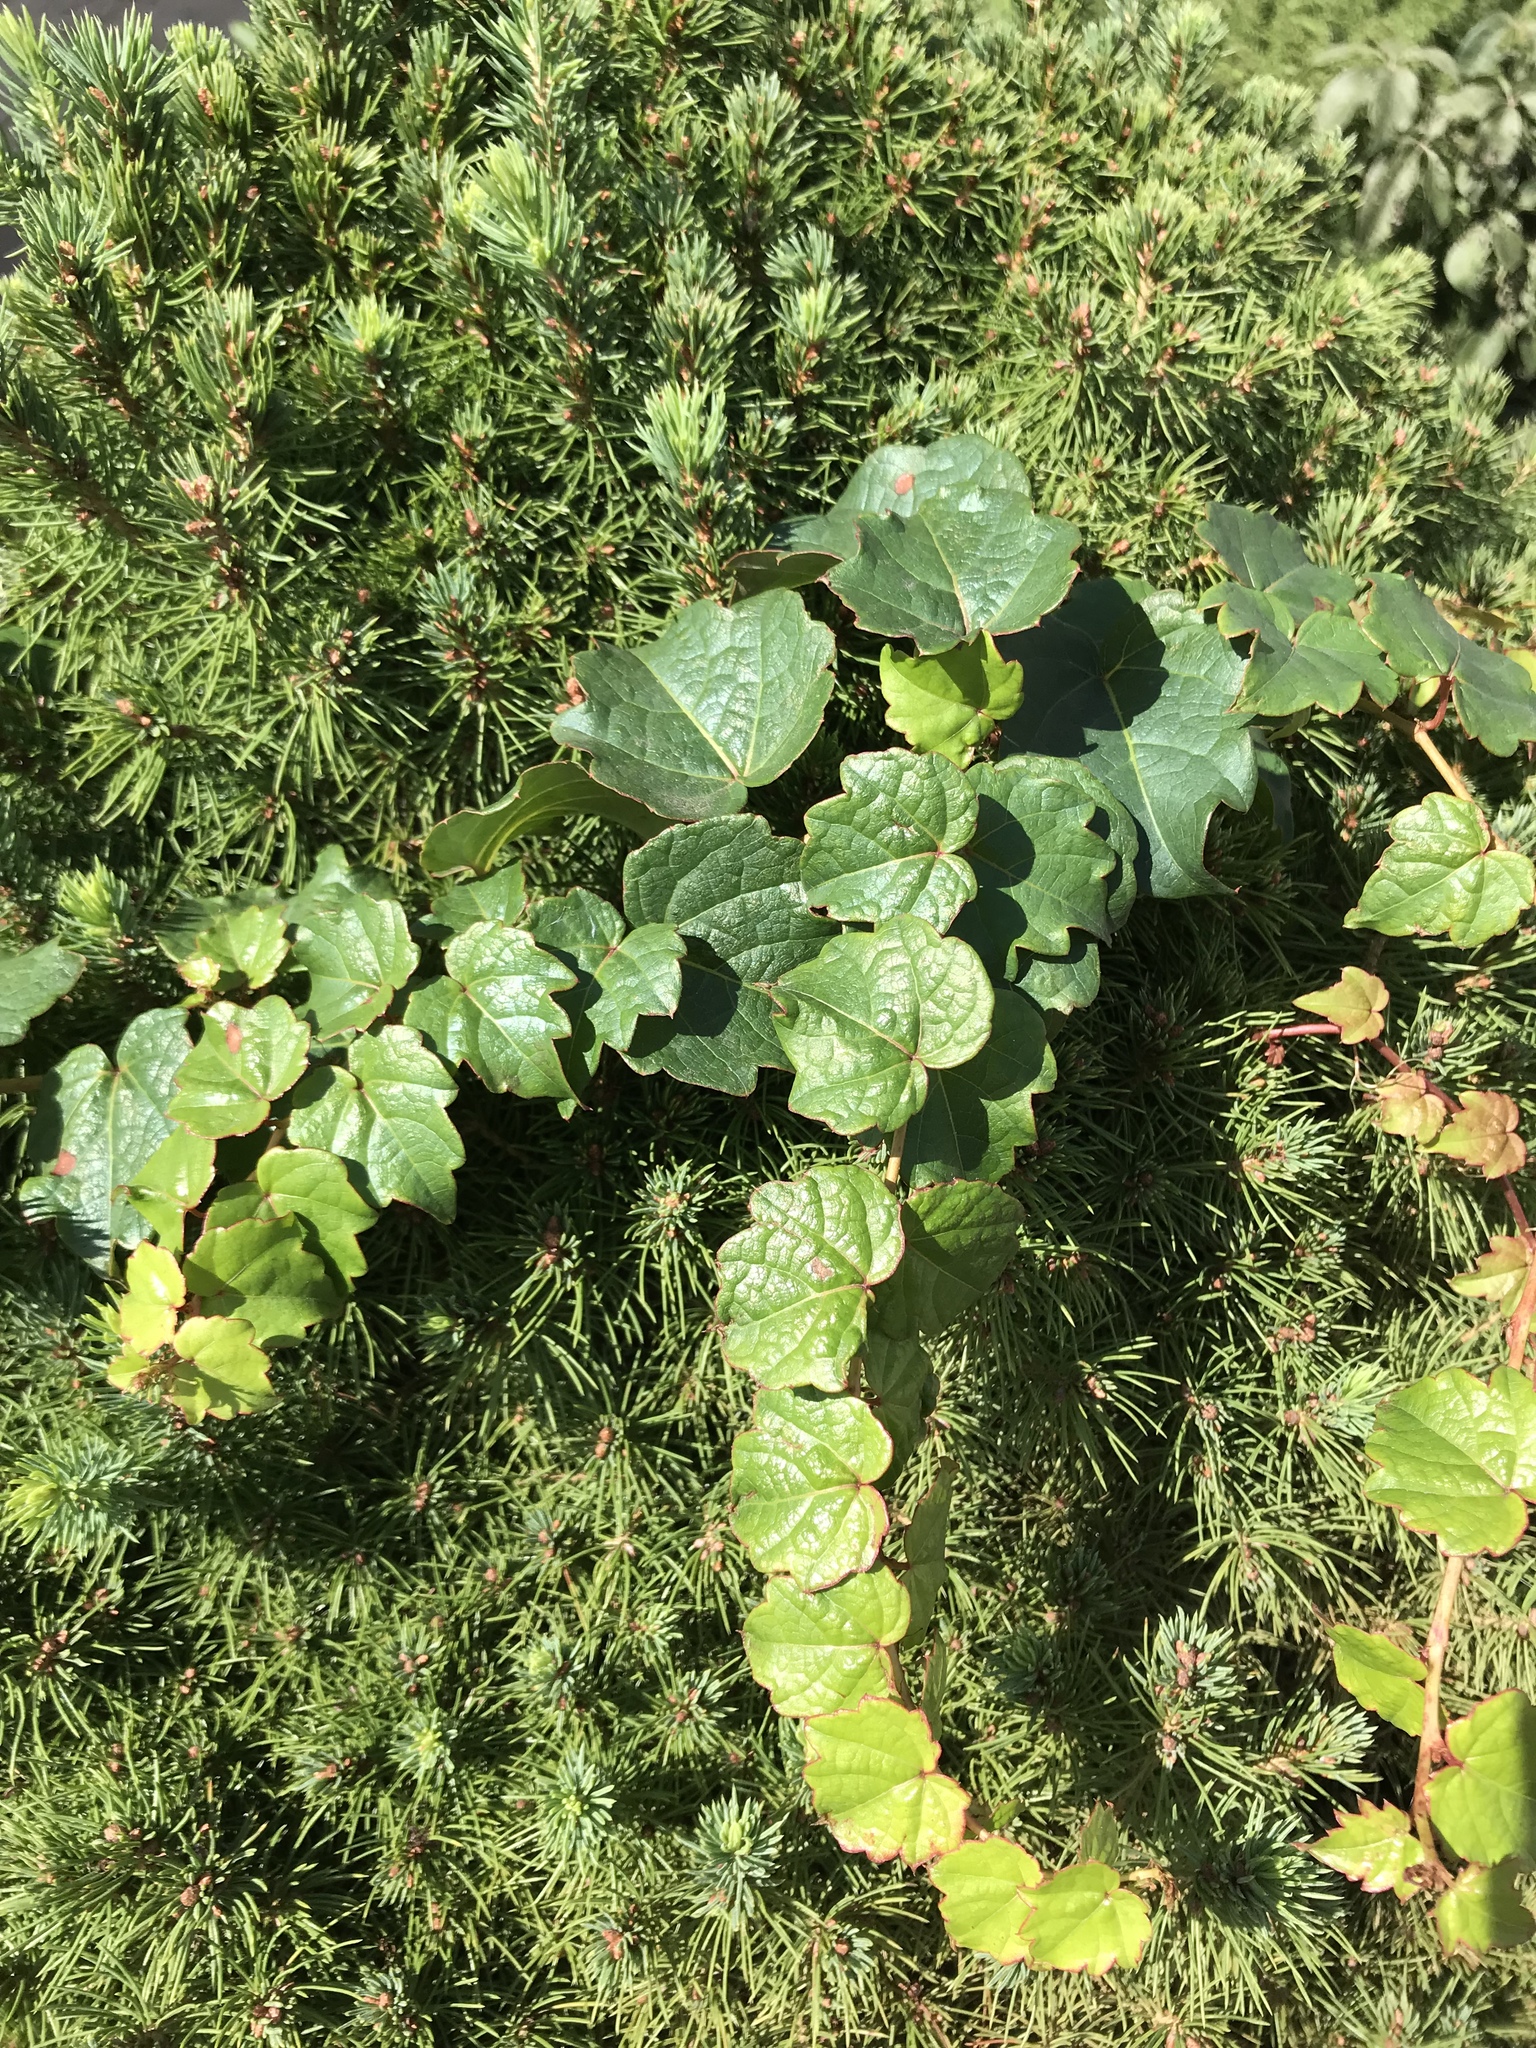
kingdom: Plantae
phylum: Tracheophyta
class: Magnoliopsida
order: Vitales
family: Vitaceae
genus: Parthenocissus
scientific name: Parthenocissus tricuspidata
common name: Boston ivy
